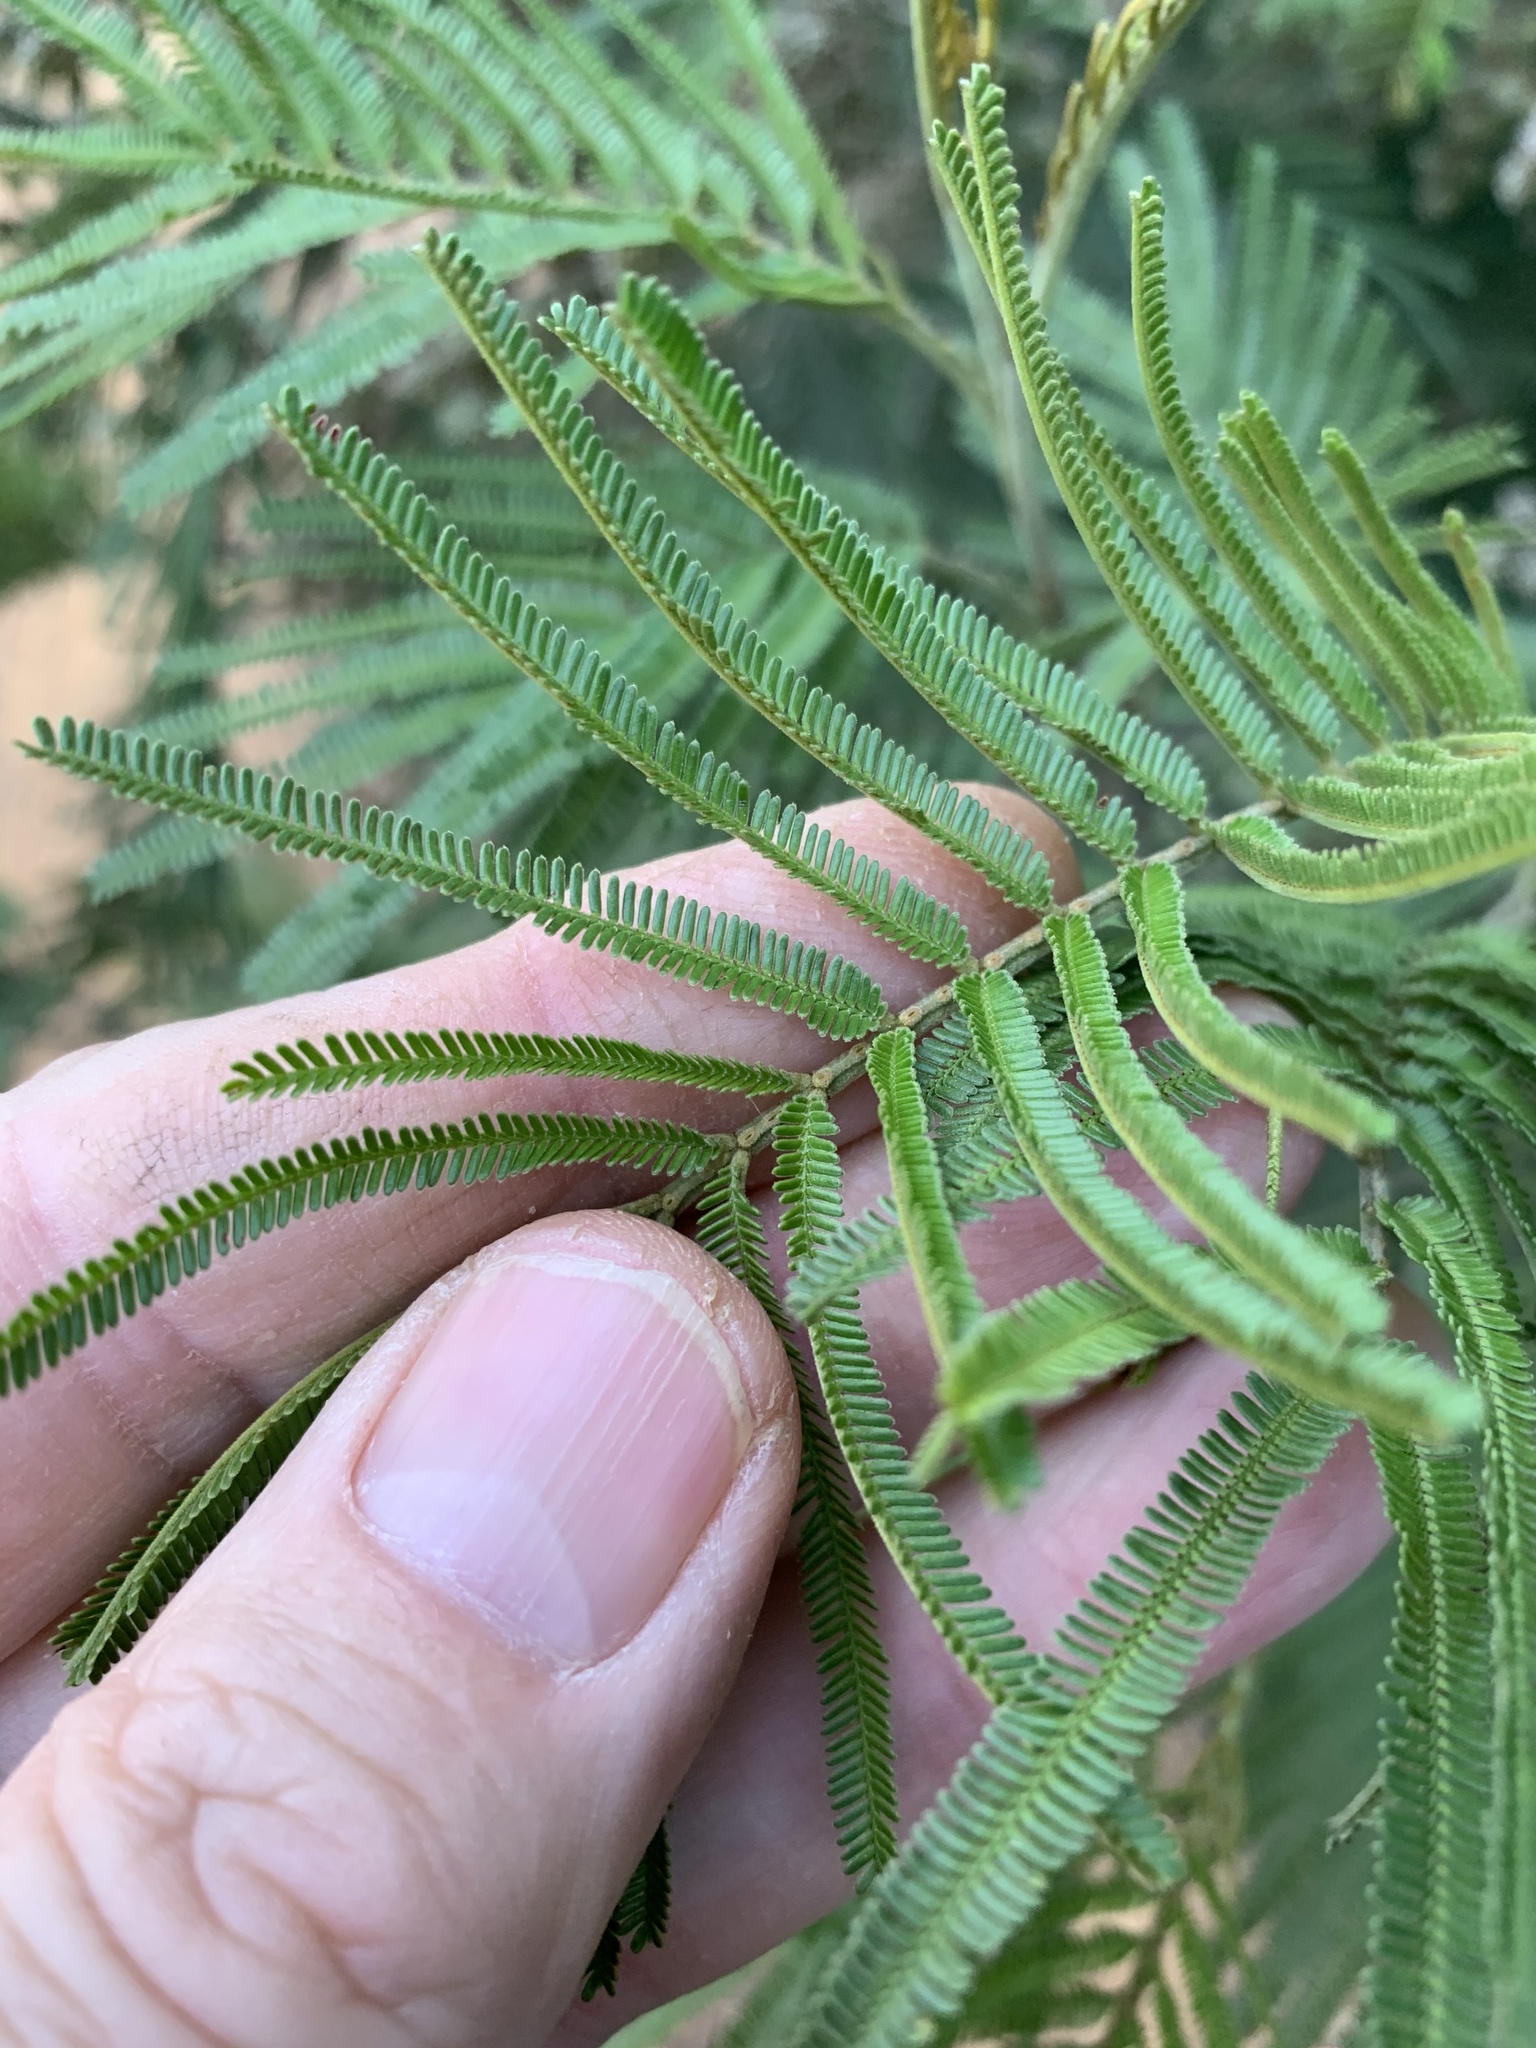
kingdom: Plantae
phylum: Tracheophyta
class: Magnoliopsida
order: Fabales
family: Fabaceae
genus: Acacia
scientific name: Acacia mearnsii
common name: Black wattle
